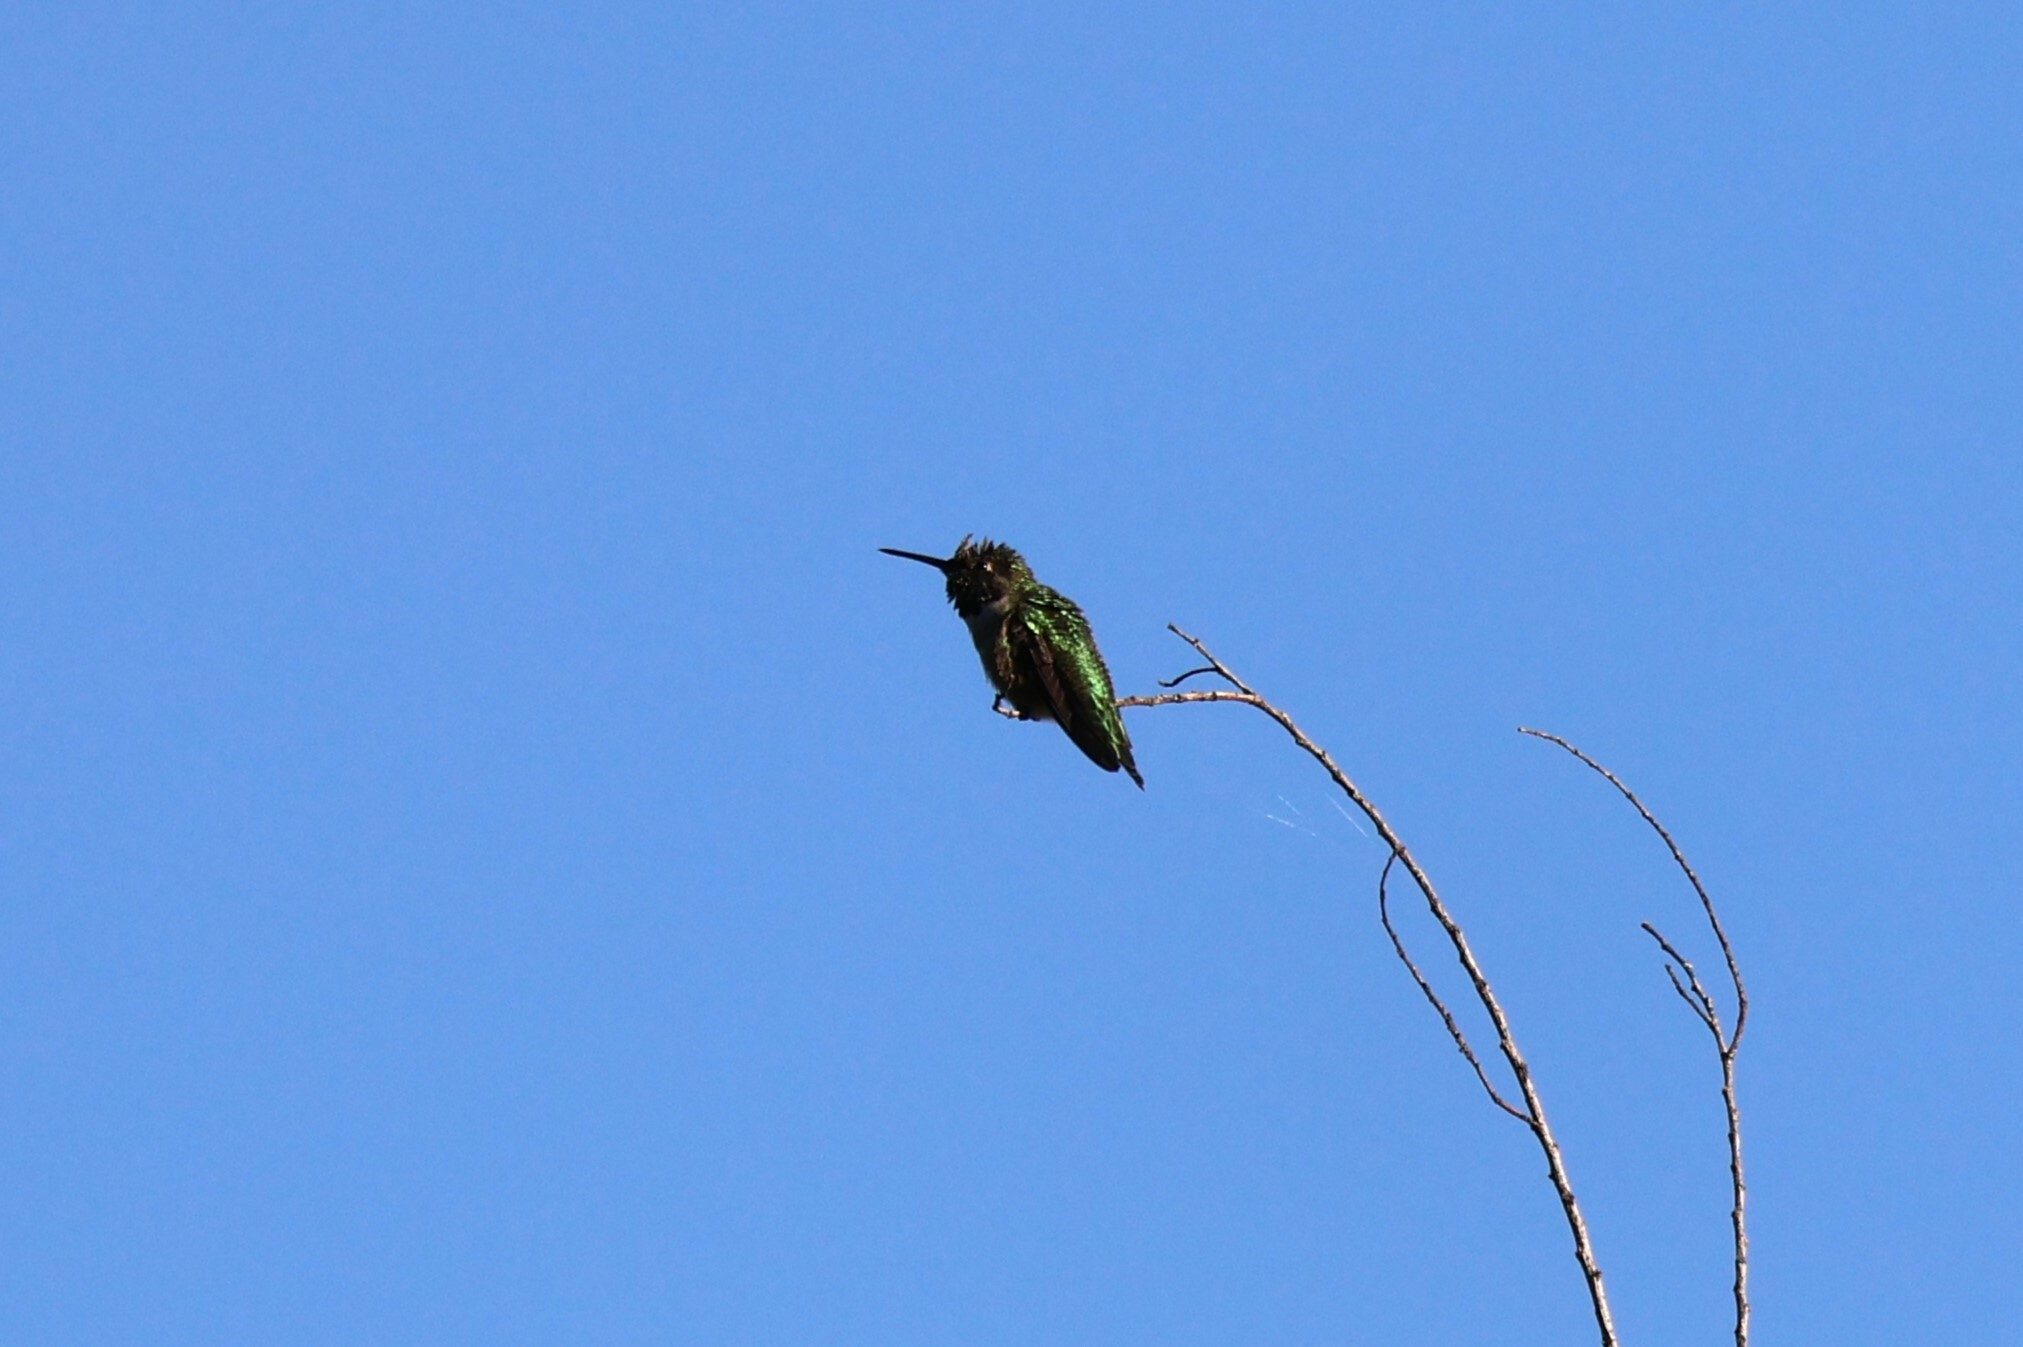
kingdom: Animalia
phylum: Chordata
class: Aves
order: Apodiformes
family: Trochilidae
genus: Calypte
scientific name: Calypte anna
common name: Anna's hummingbird
